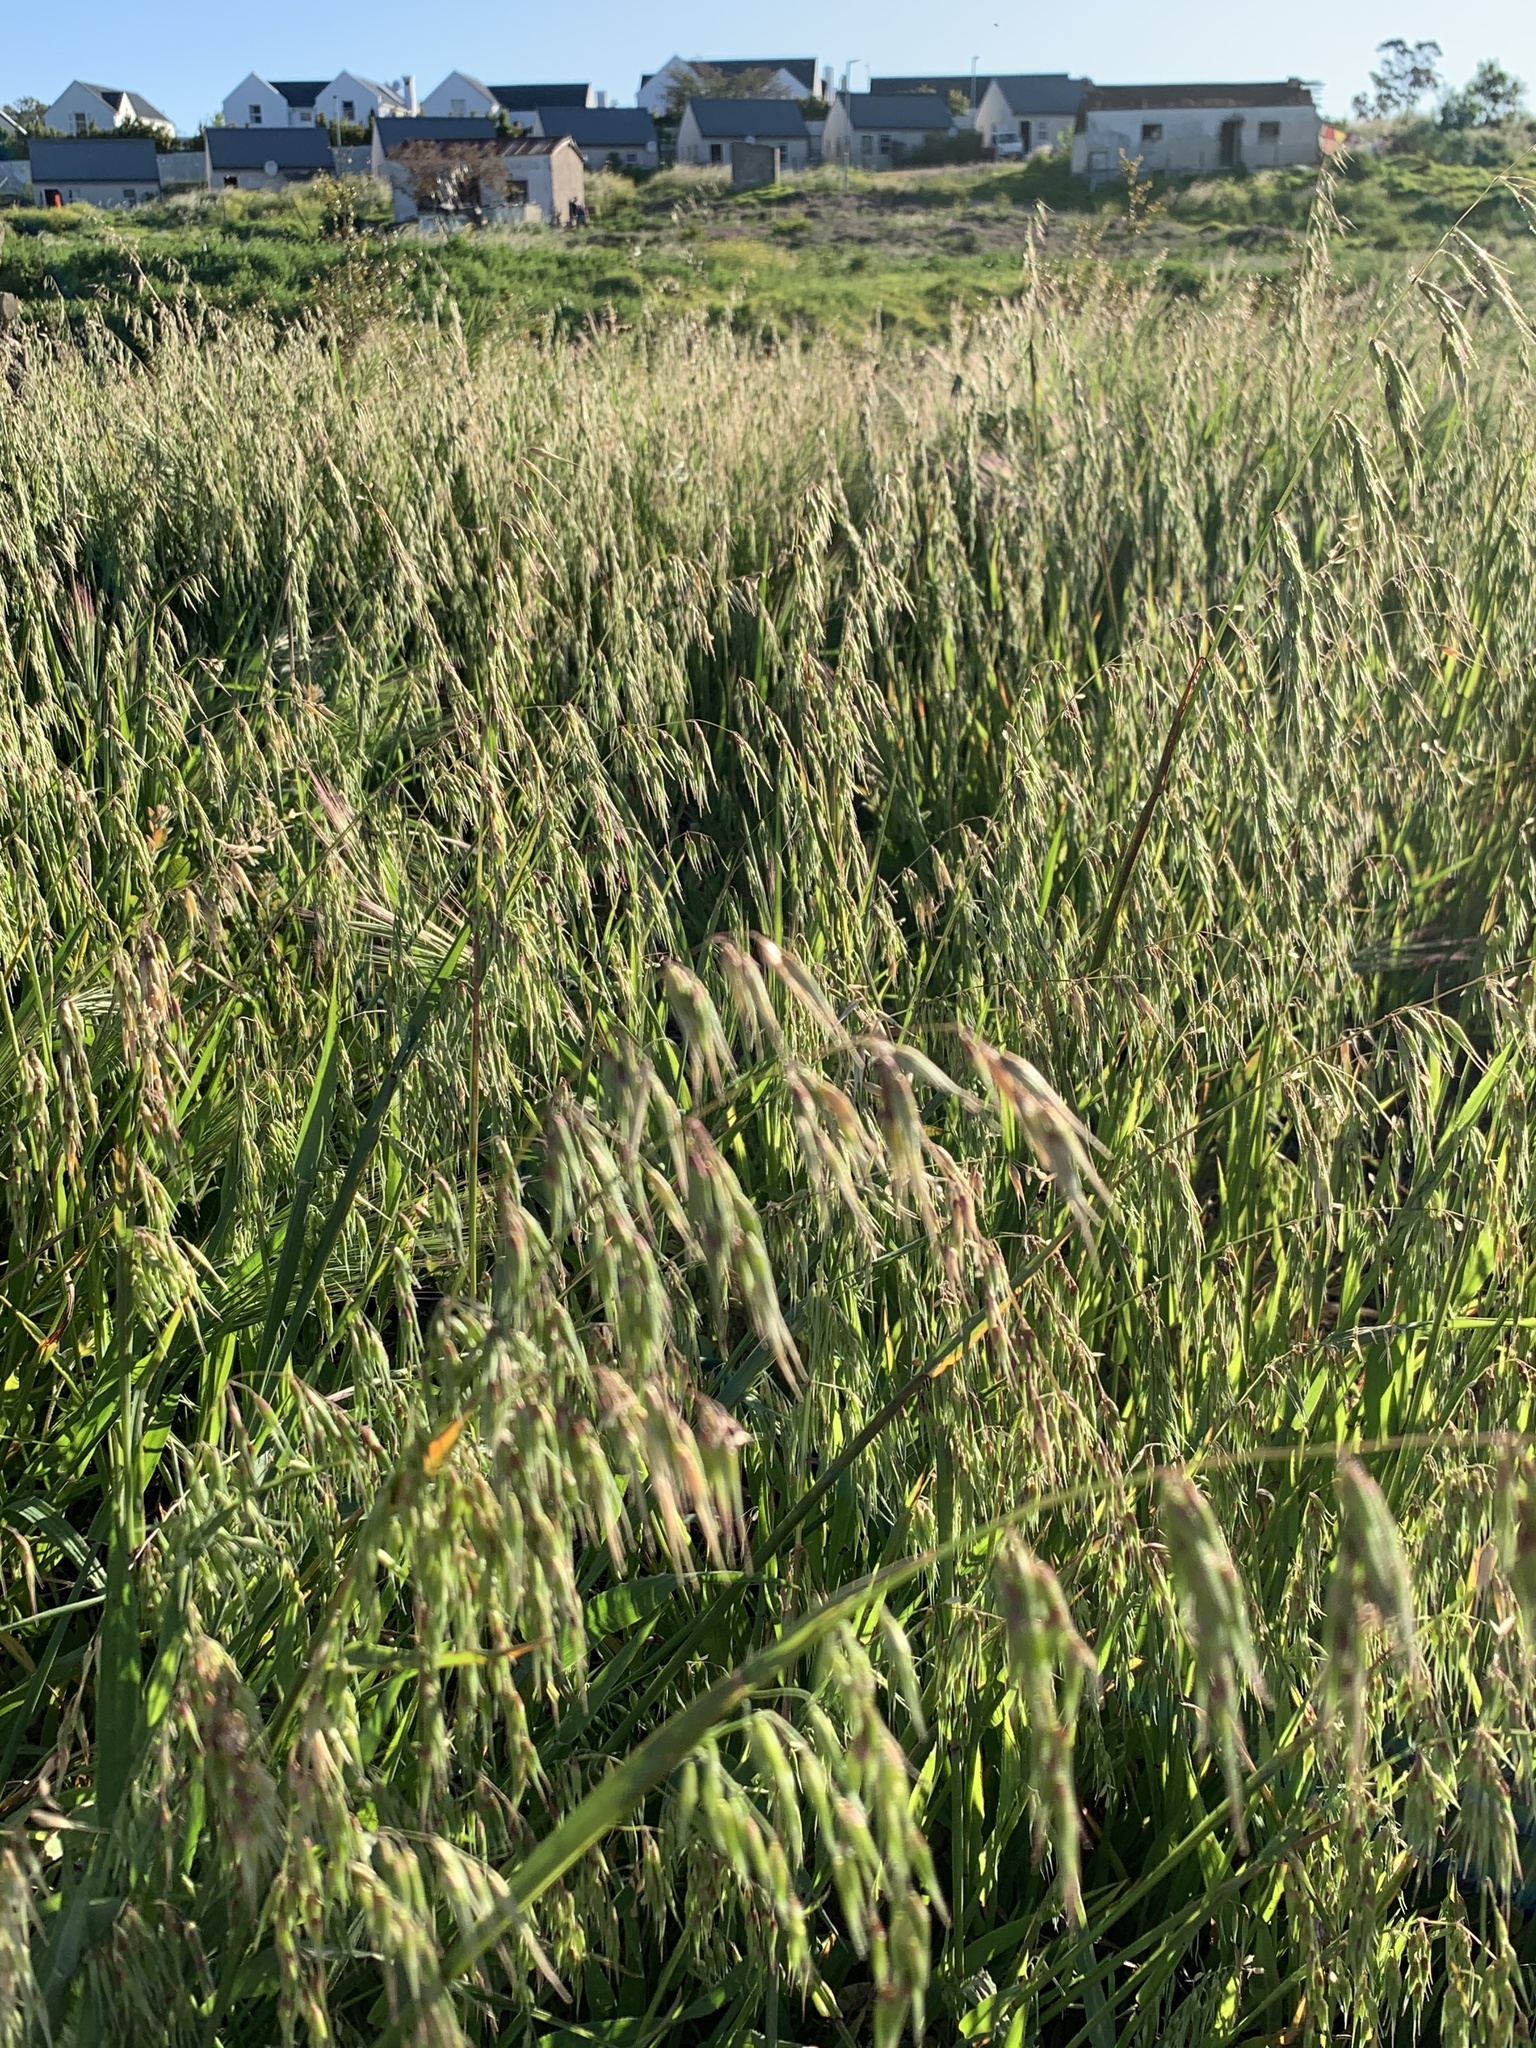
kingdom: Plantae
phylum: Tracheophyta
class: Liliopsida
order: Poales
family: Poaceae
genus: Ehrharta
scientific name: Ehrharta longiflora
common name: Longflowered veldtgrass
